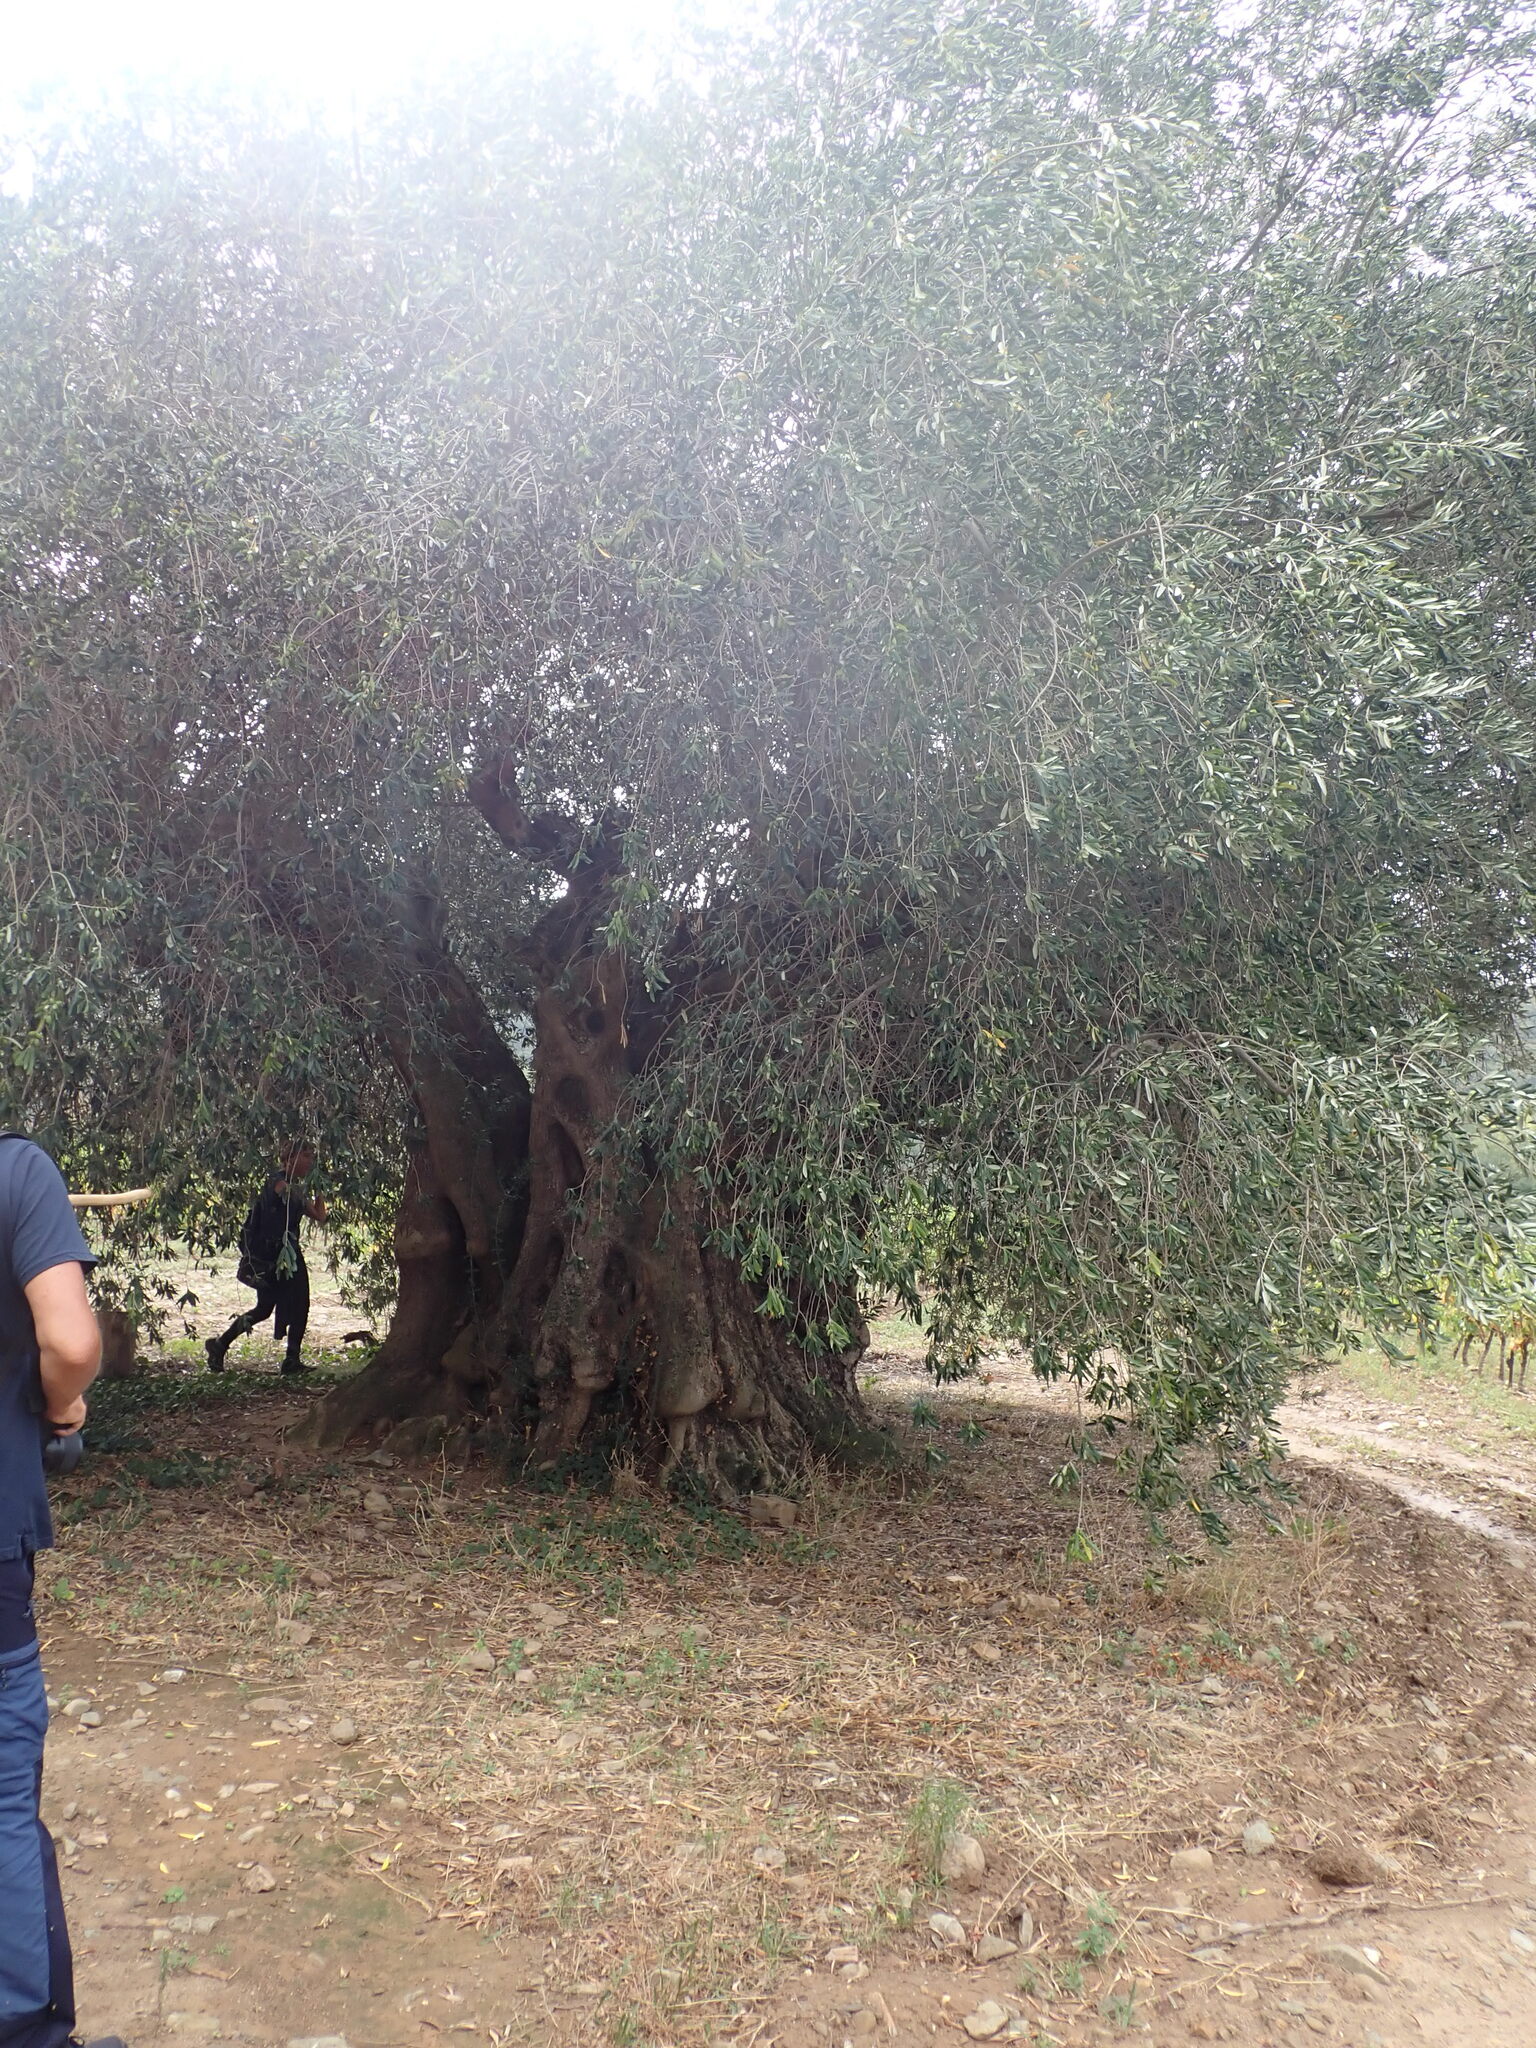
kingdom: Plantae
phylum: Tracheophyta
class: Magnoliopsida
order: Lamiales
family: Oleaceae
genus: Olea
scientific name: Olea europaea
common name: Olive
